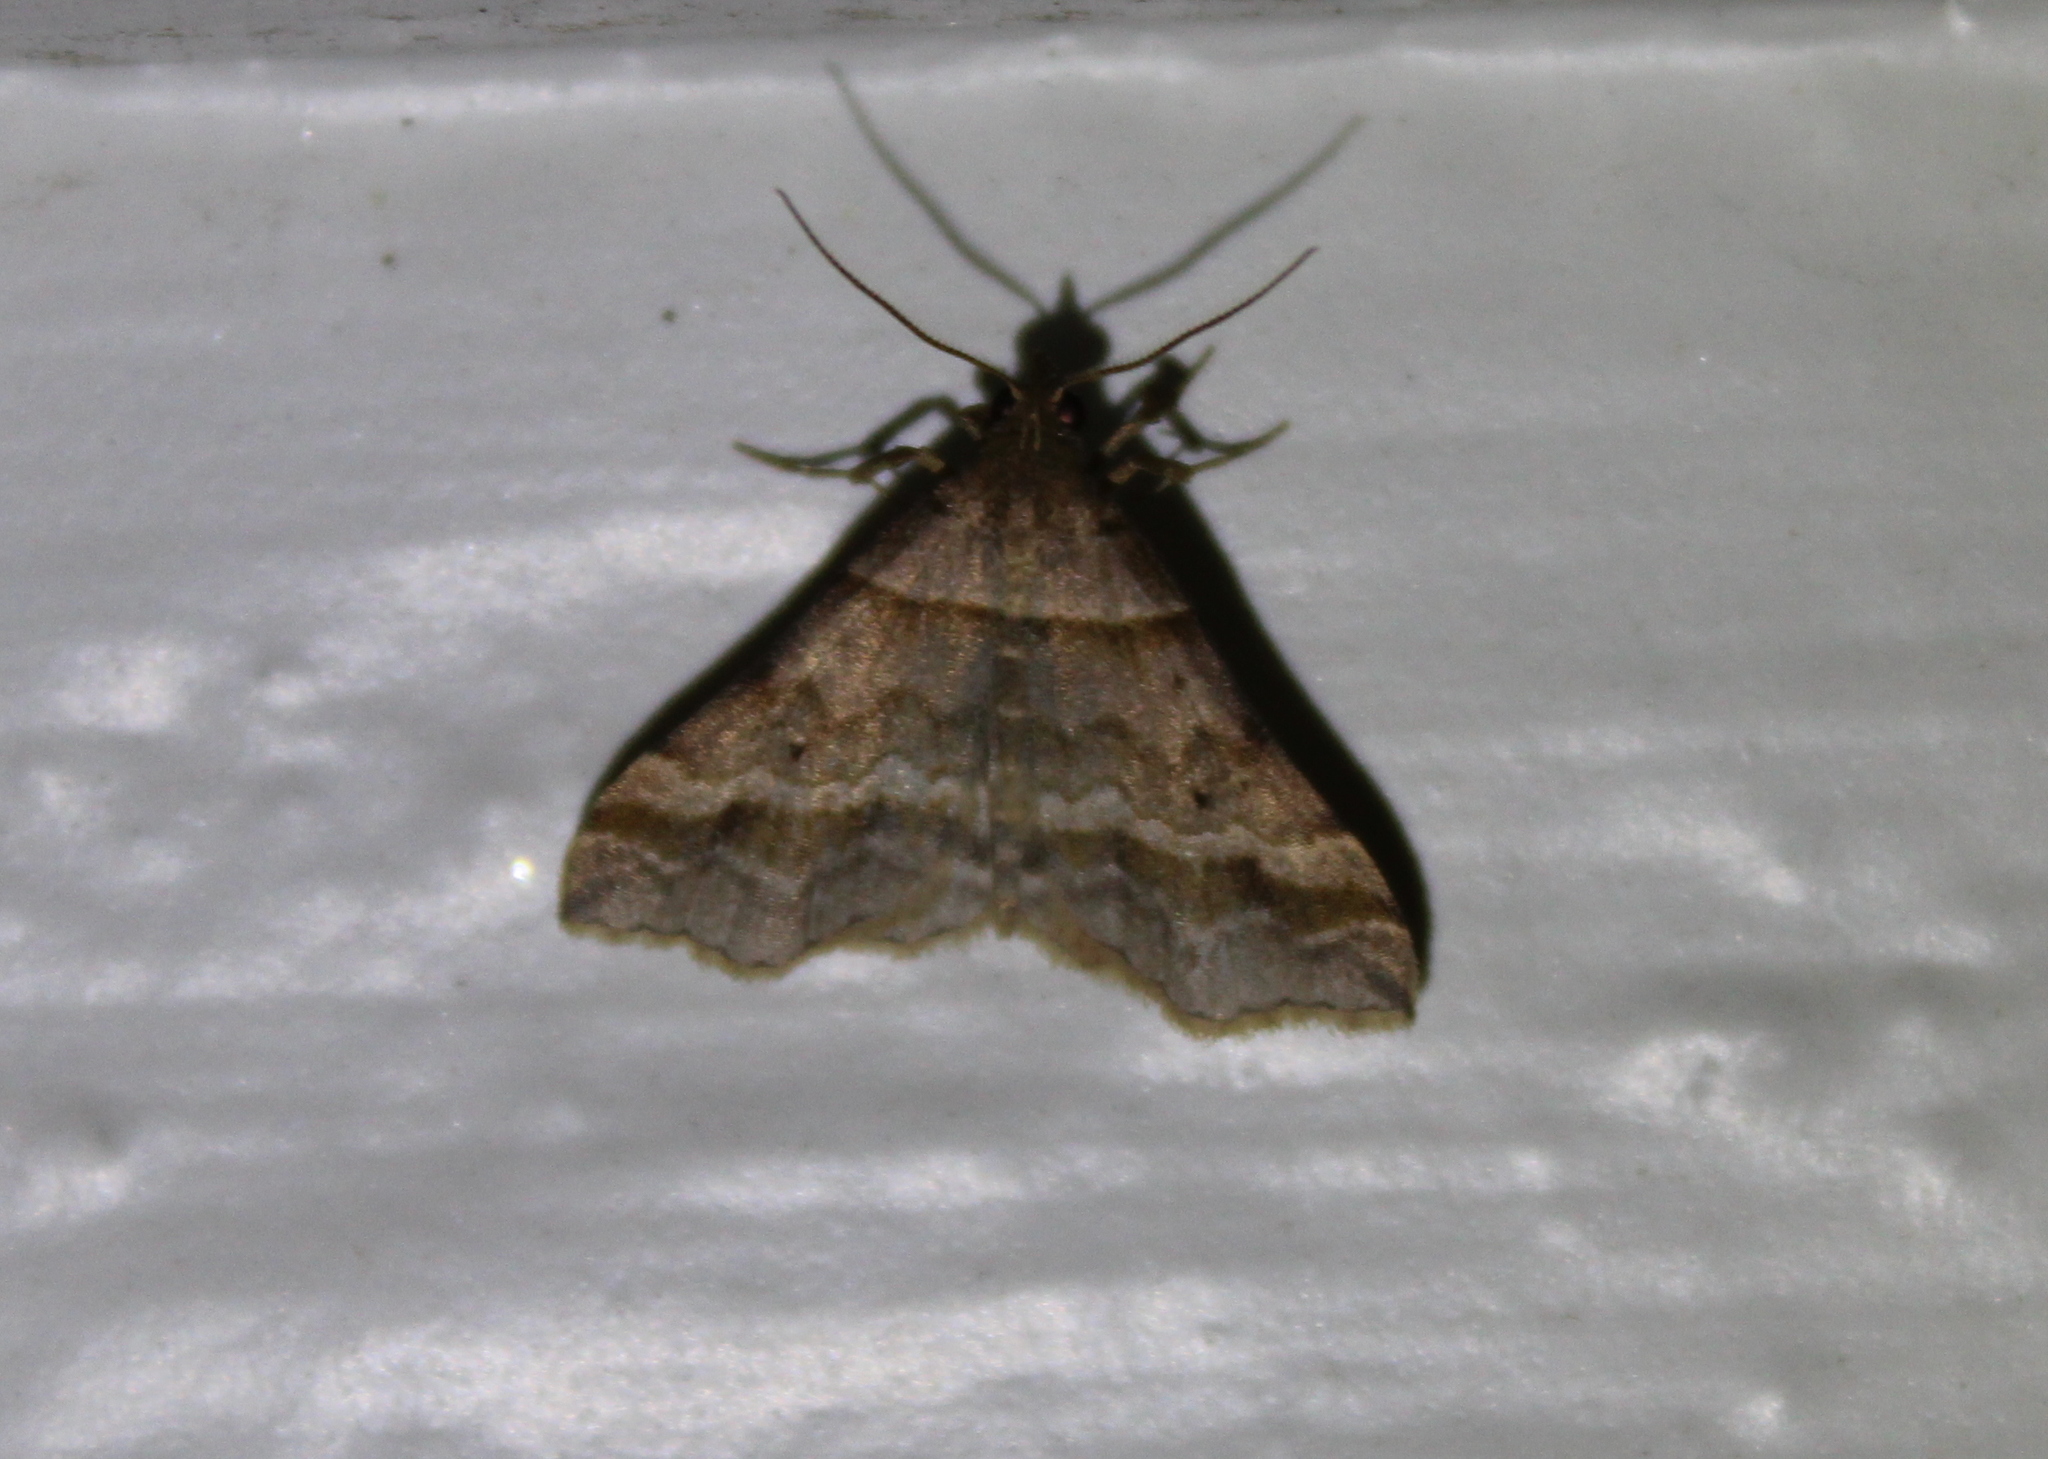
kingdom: Animalia
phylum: Arthropoda
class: Insecta
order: Lepidoptera
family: Erebidae
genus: Phaeolita
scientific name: Phaeolita pyramusalis
